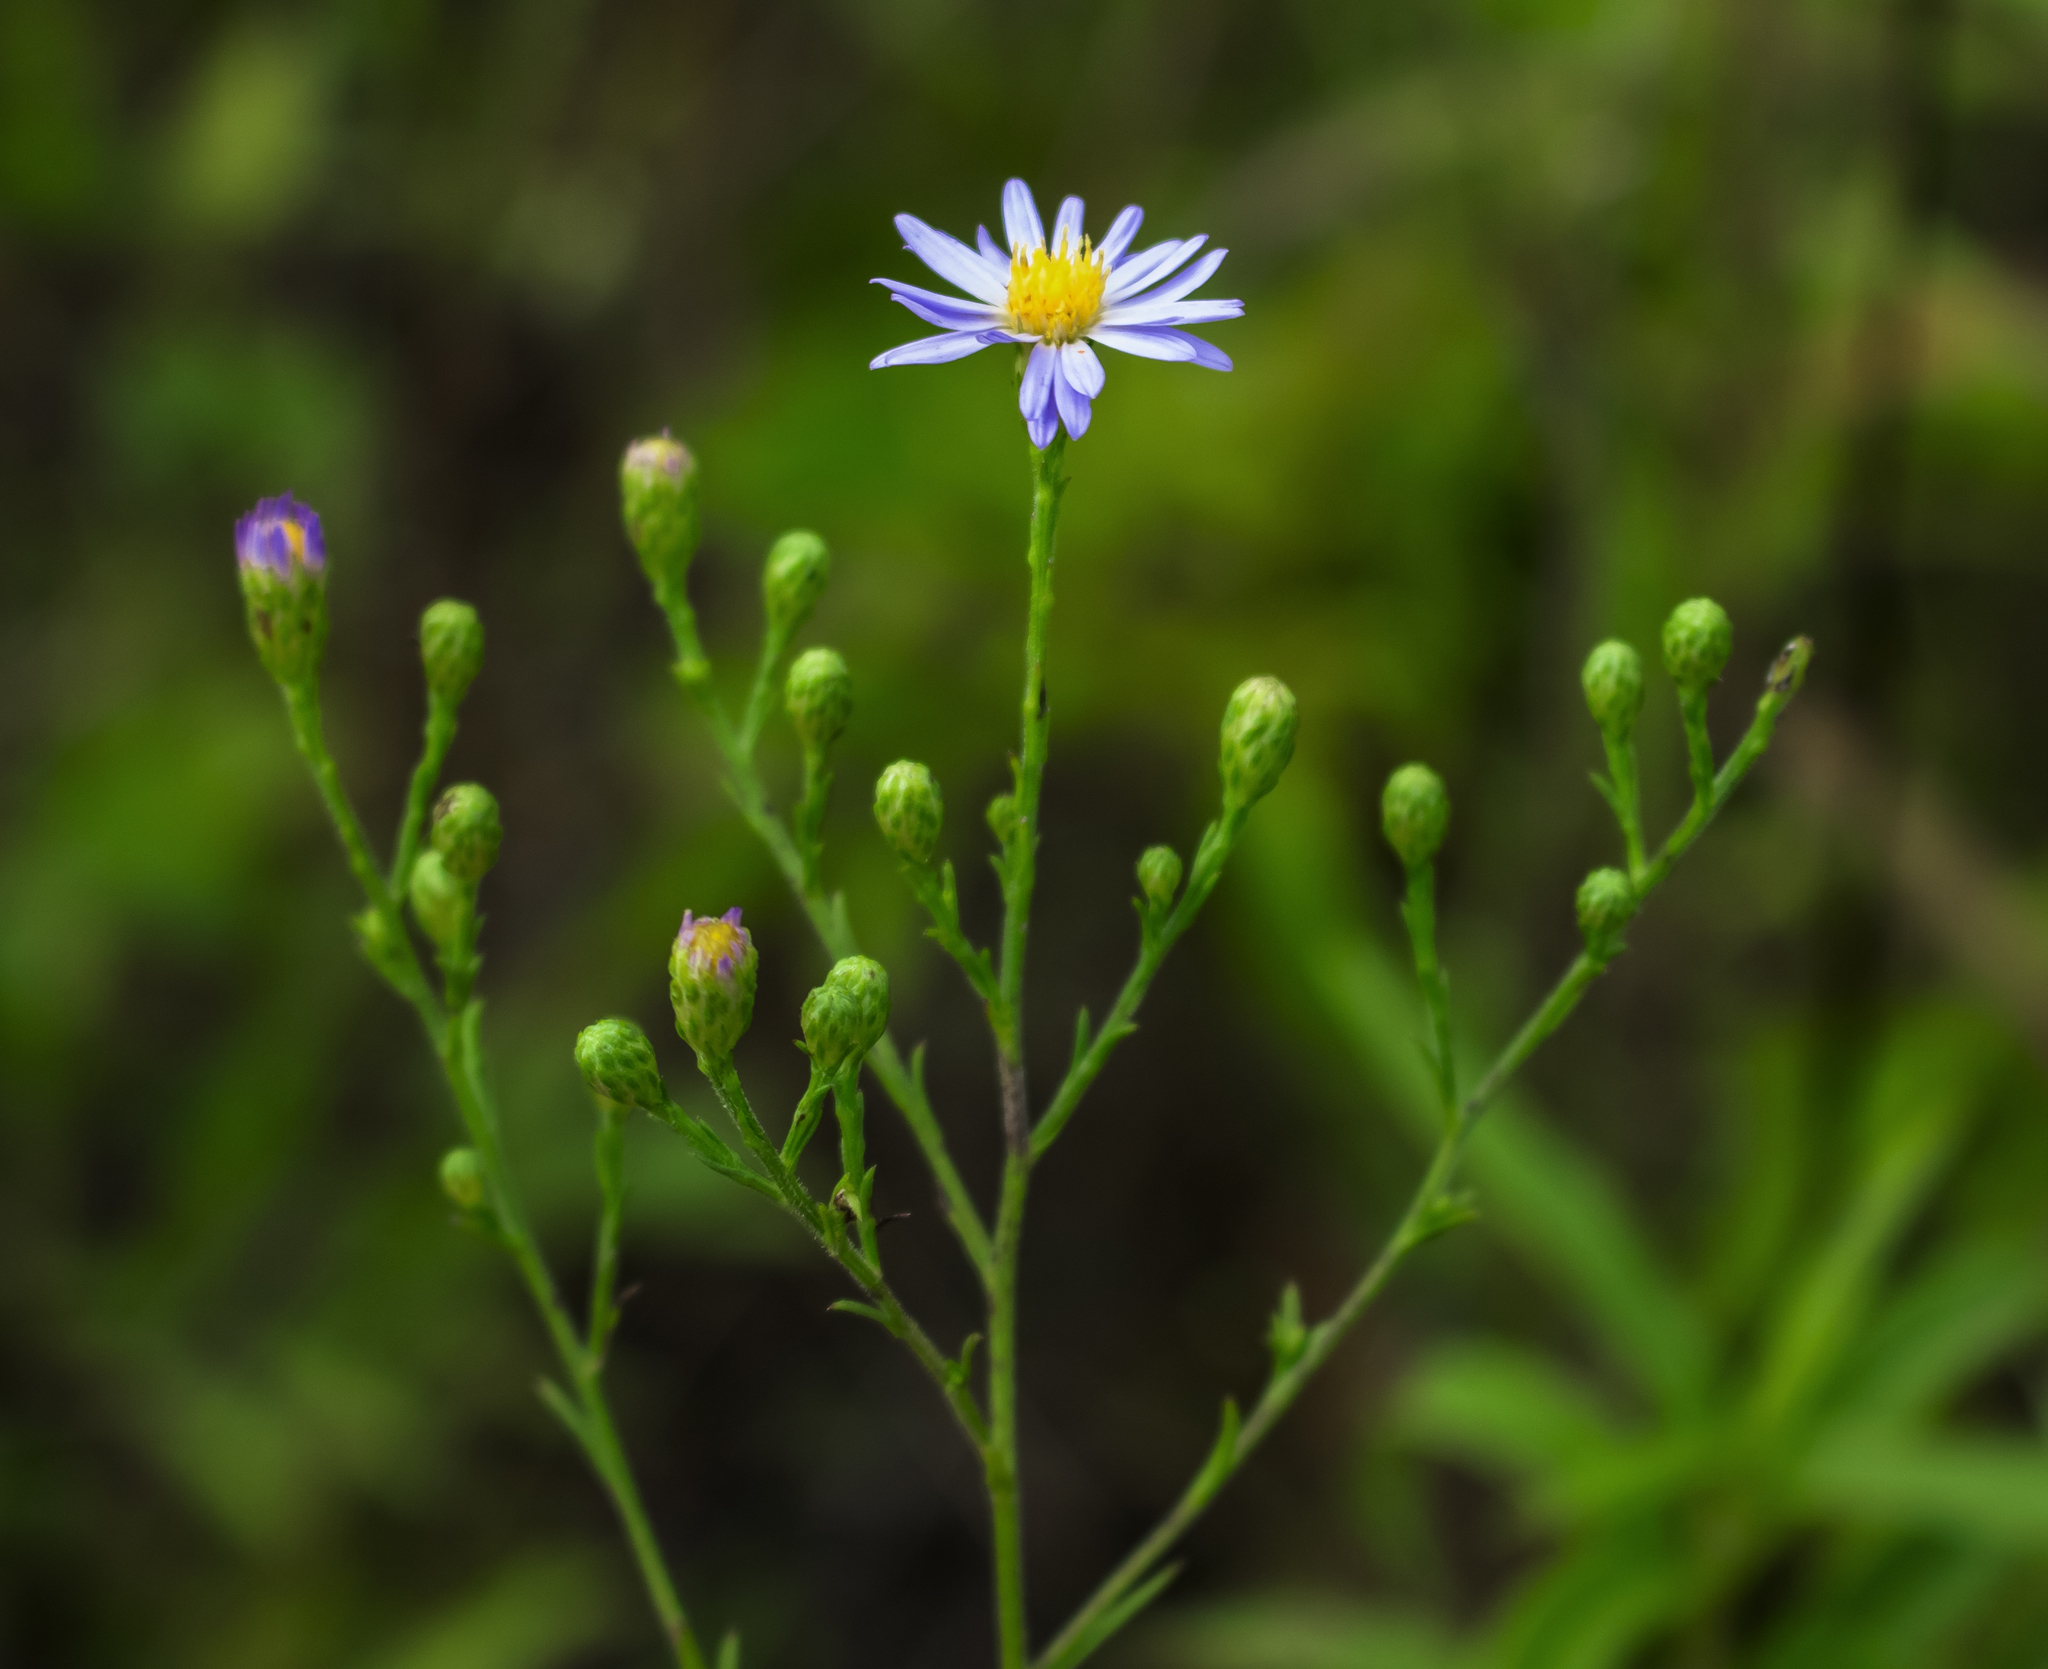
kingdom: Plantae
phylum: Tracheophyta
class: Magnoliopsida
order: Asterales
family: Asteraceae
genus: Symphyotrichum
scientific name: Symphyotrichum oolentangiense
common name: Azure aster
